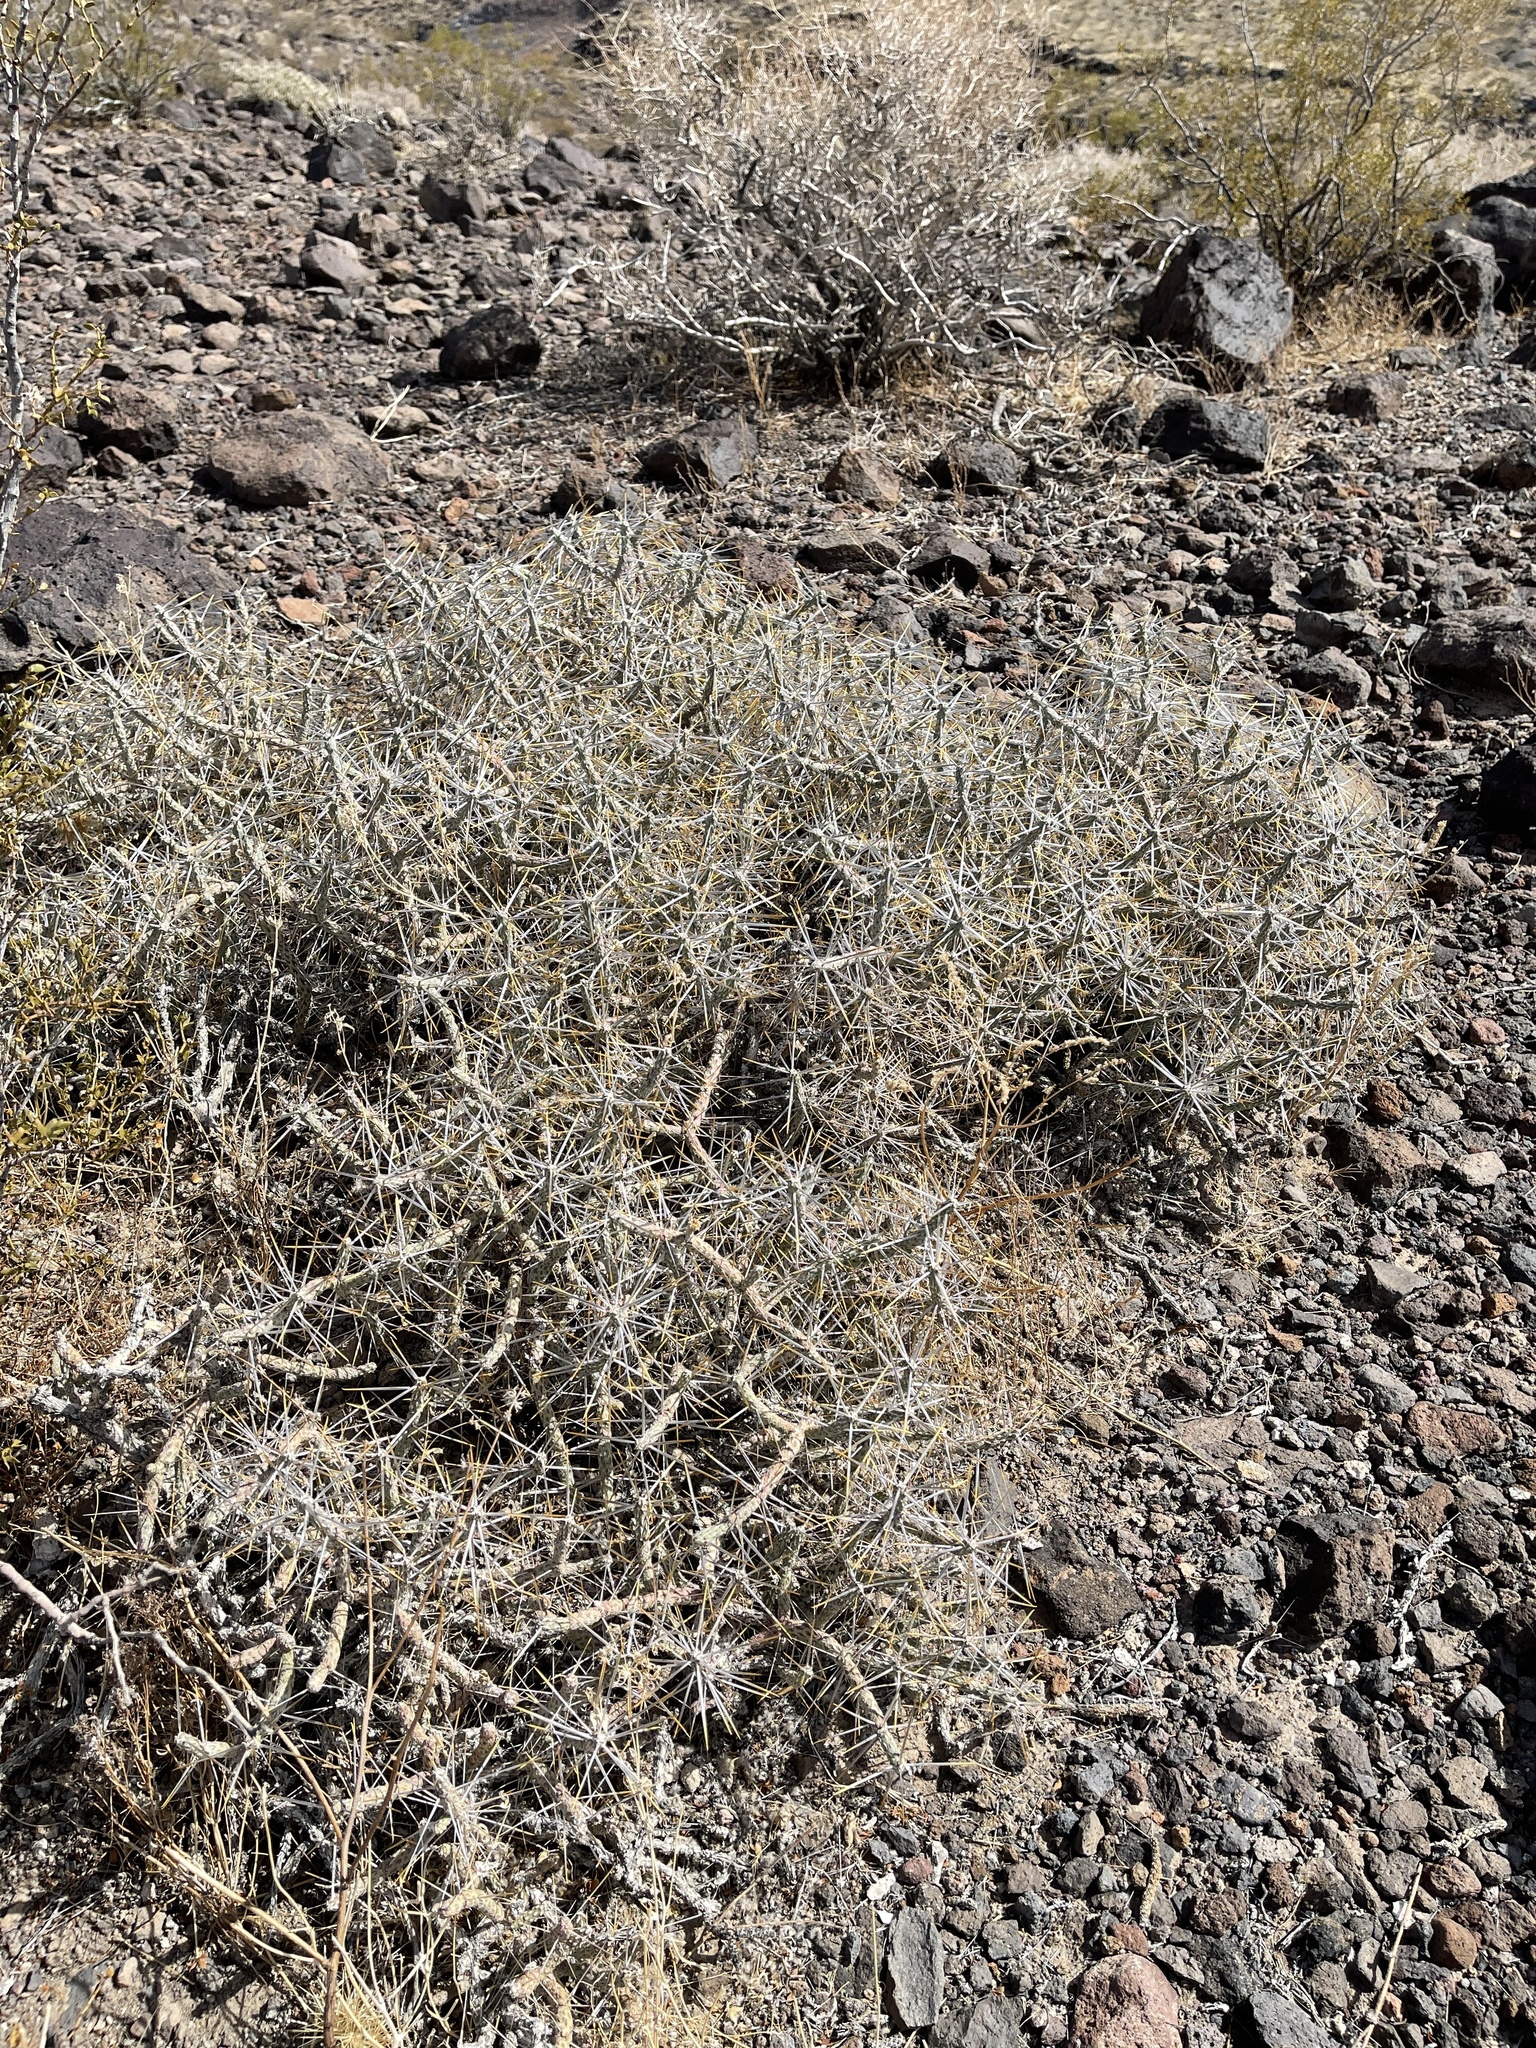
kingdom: Plantae
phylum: Tracheophyta
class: Magnoliopsida
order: Caryophyllales
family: Cactaceae
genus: Cylindropuntia
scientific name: Cylindropuntia ramosissima
